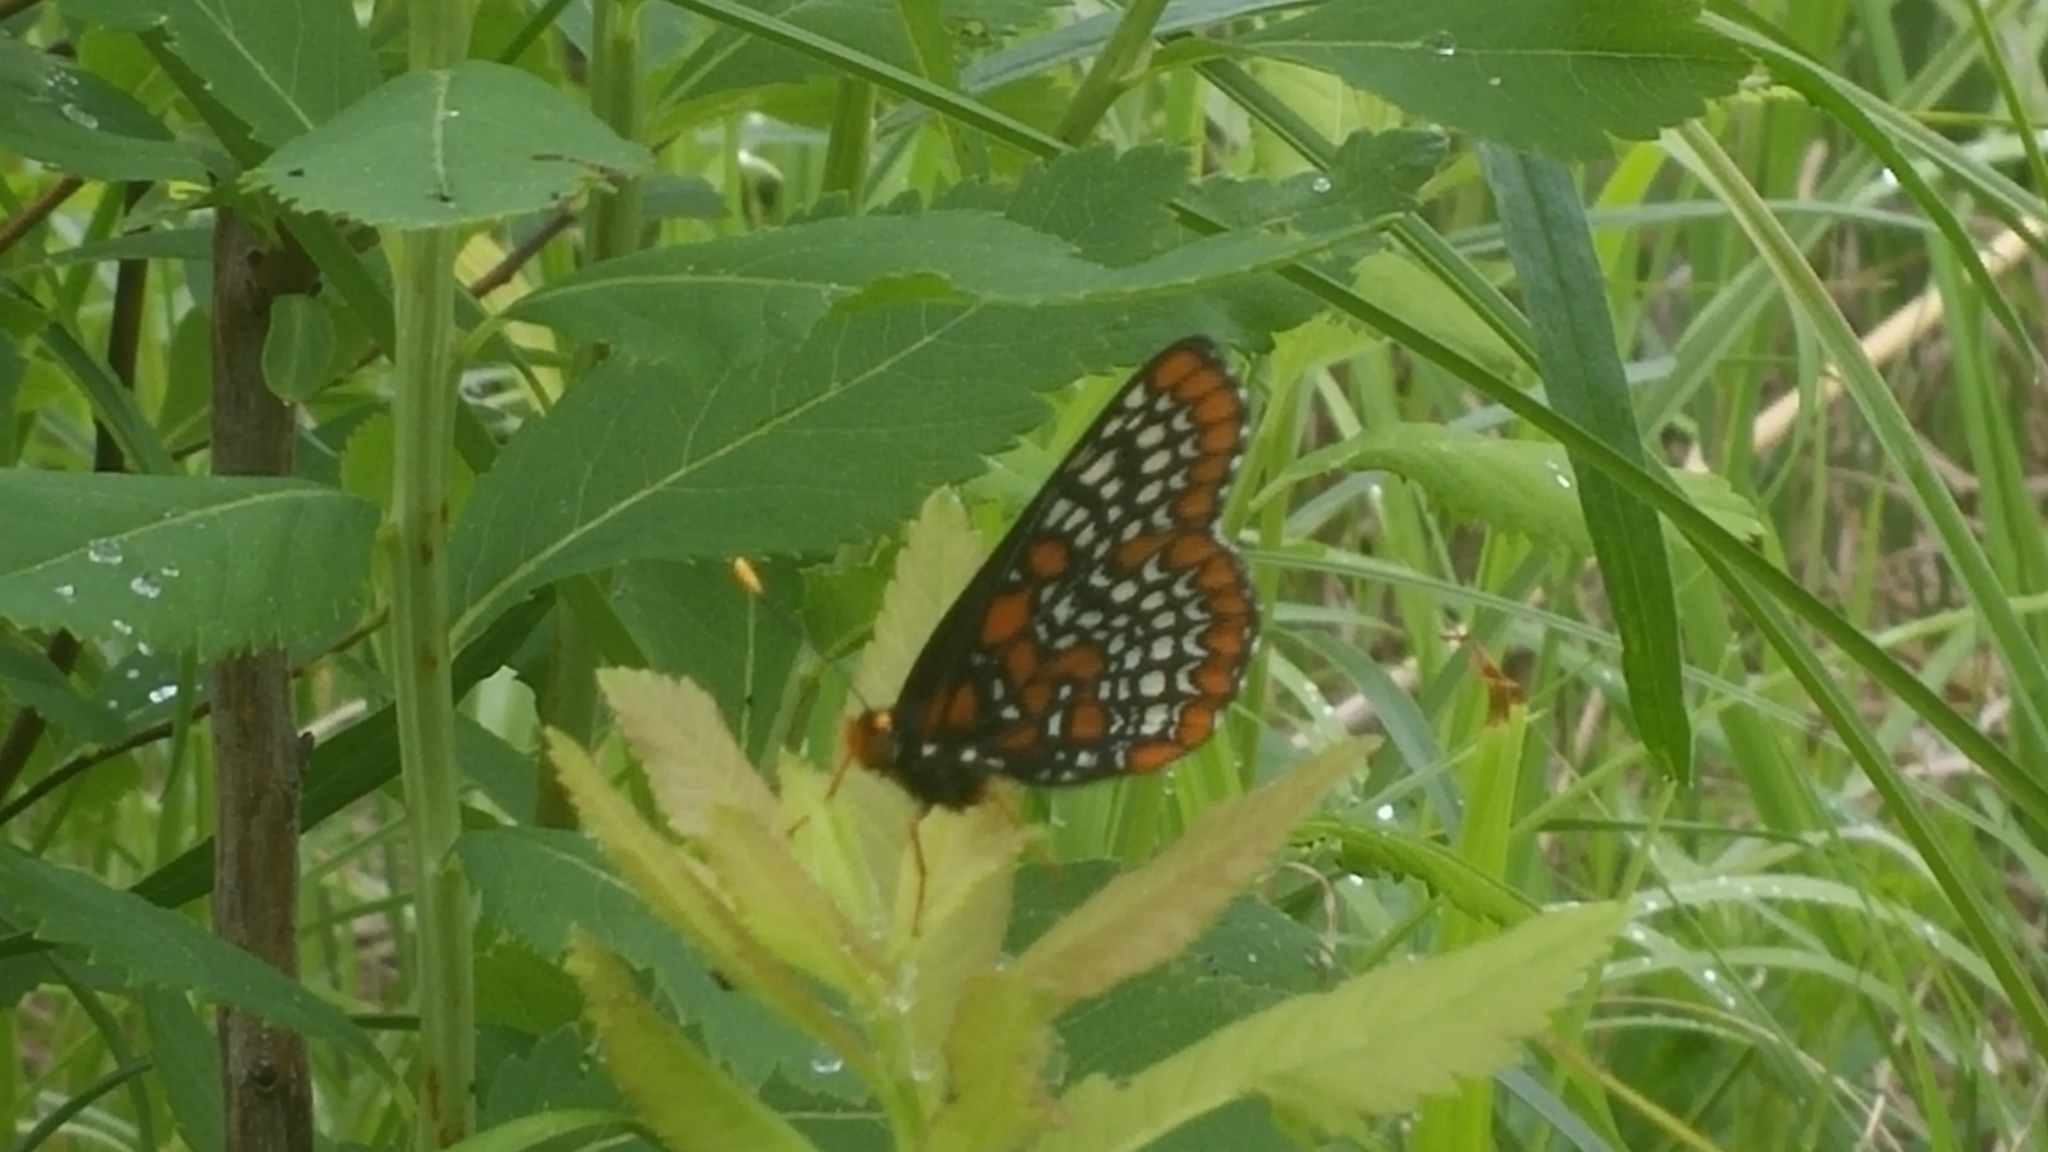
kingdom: Animalia
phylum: Arthropoda
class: Insecta
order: Lepidoptera
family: Nymphalidae
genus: Euphydryas
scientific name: Euphydryas phaeton
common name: Baltimore checkerspot
